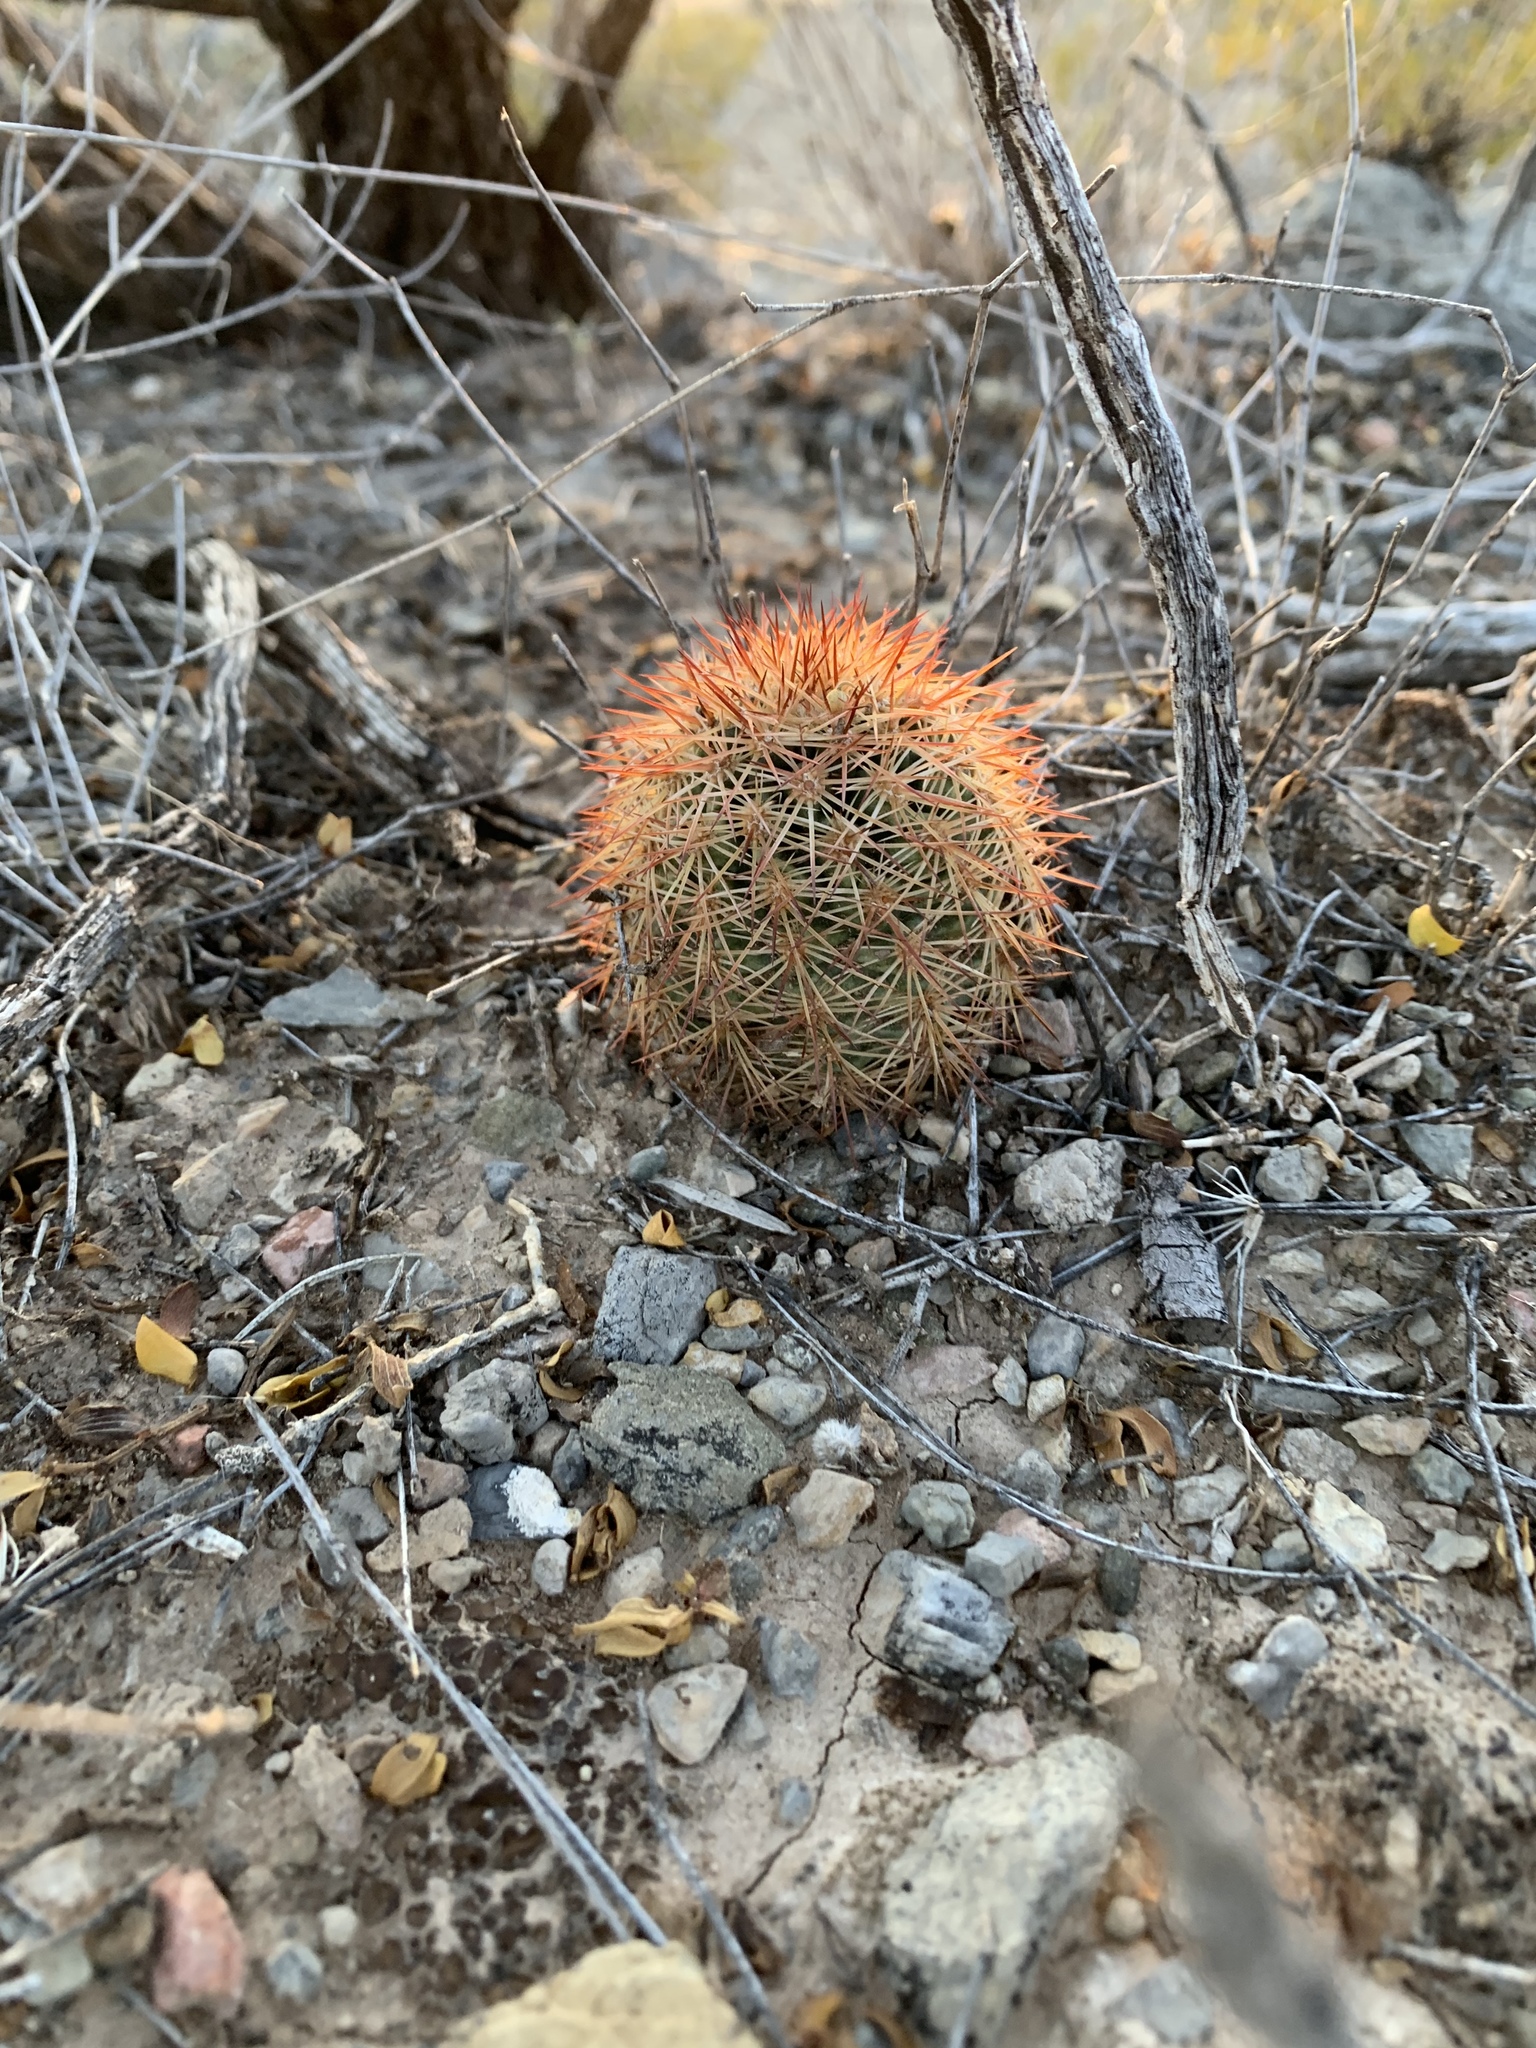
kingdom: Plantae
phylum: Tracheophyta
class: Magnoliopsida
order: Caryophyllales
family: Cactaceae
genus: Echinocereus
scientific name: Echinocereus dasyacanthus
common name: Spiny hedgehog cactus
